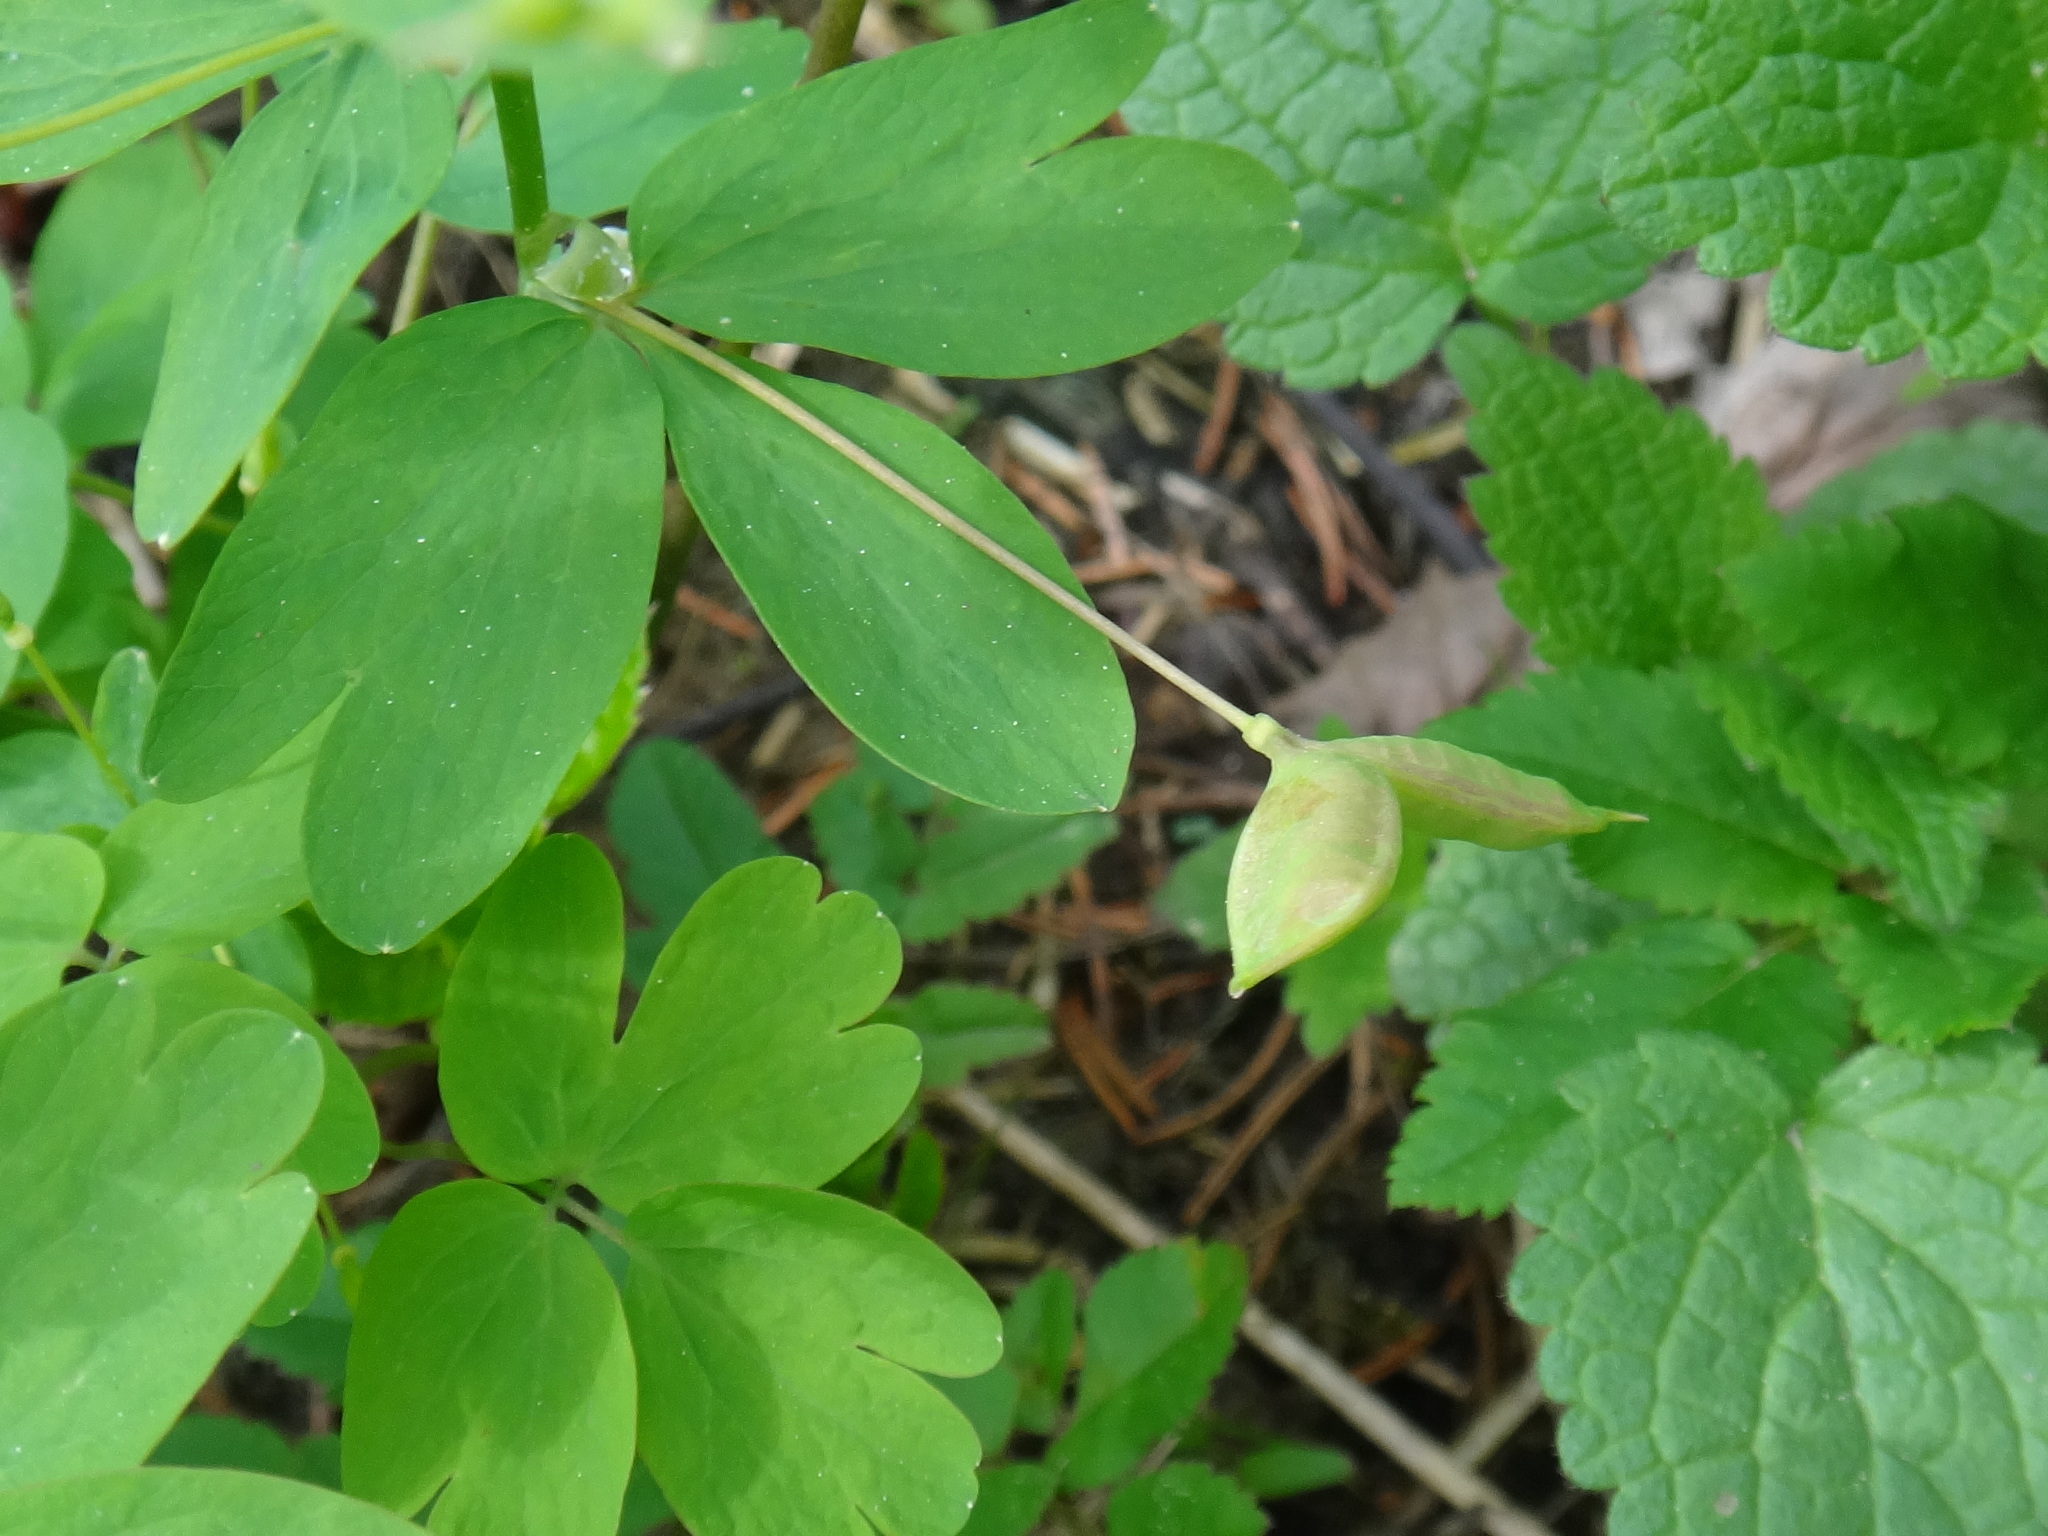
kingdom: Plantae
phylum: Tracheophyta
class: Magnoliopsida
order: Ranunculales
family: Ranunculaceae
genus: Isopyrum
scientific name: Isopyrum thalictroides
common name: Isopyrum
